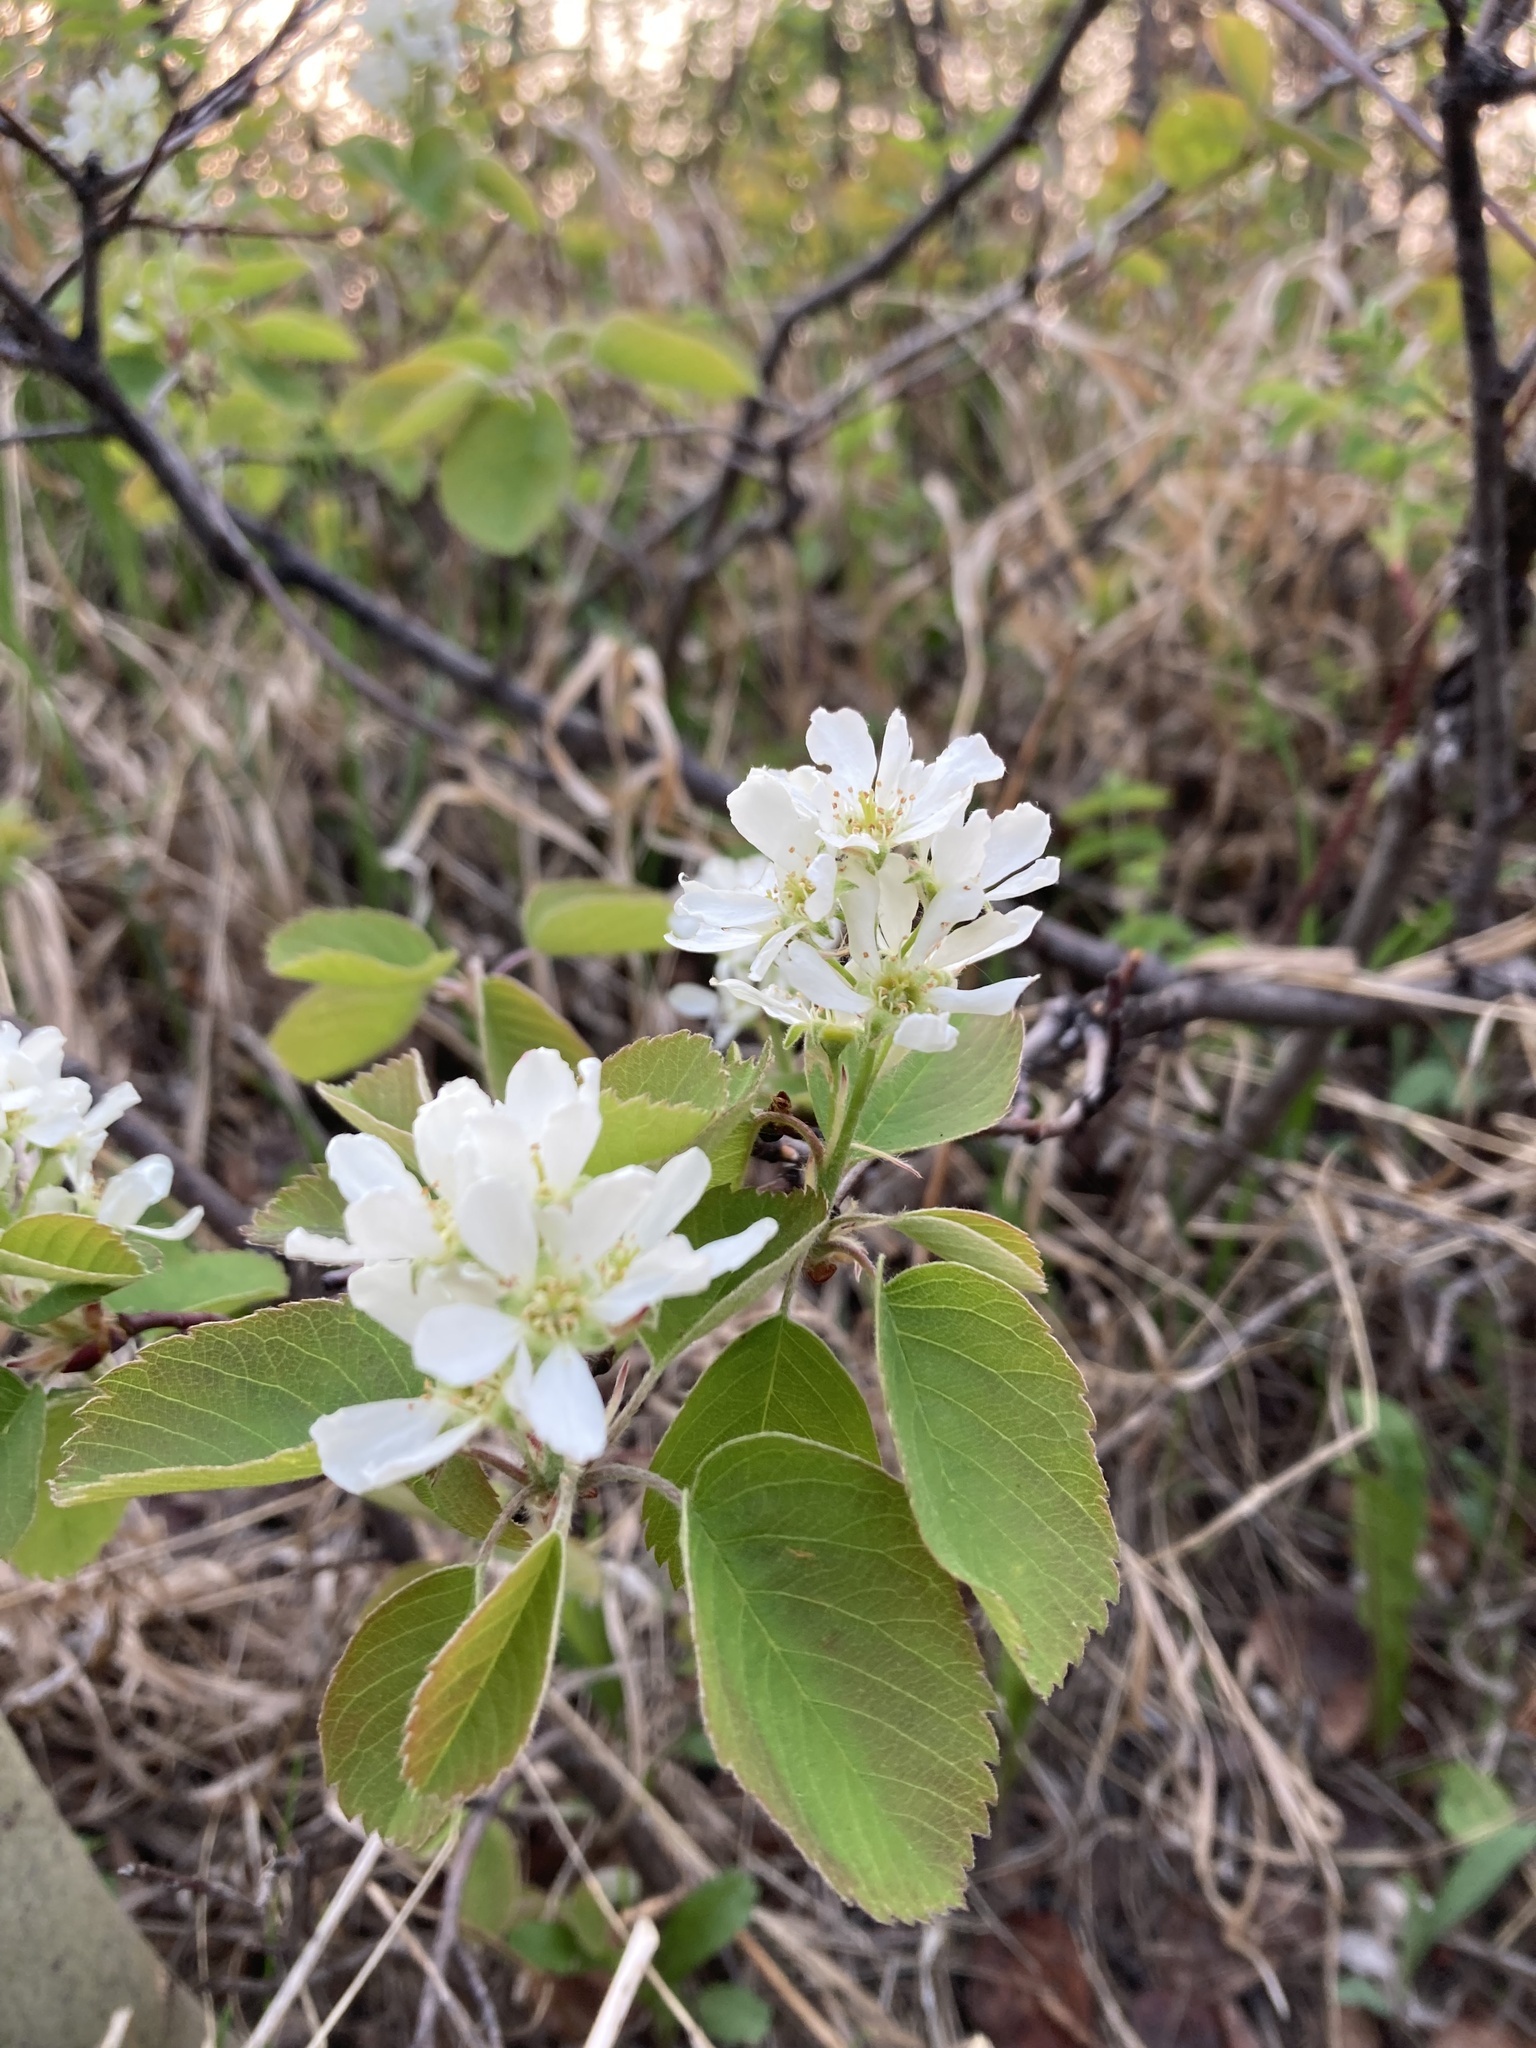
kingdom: Plantae
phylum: Tracheophyta
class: Magnoliopsida
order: Rosales
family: Rosaceae
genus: Amelanchier
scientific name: Amelanchier alnifolia
